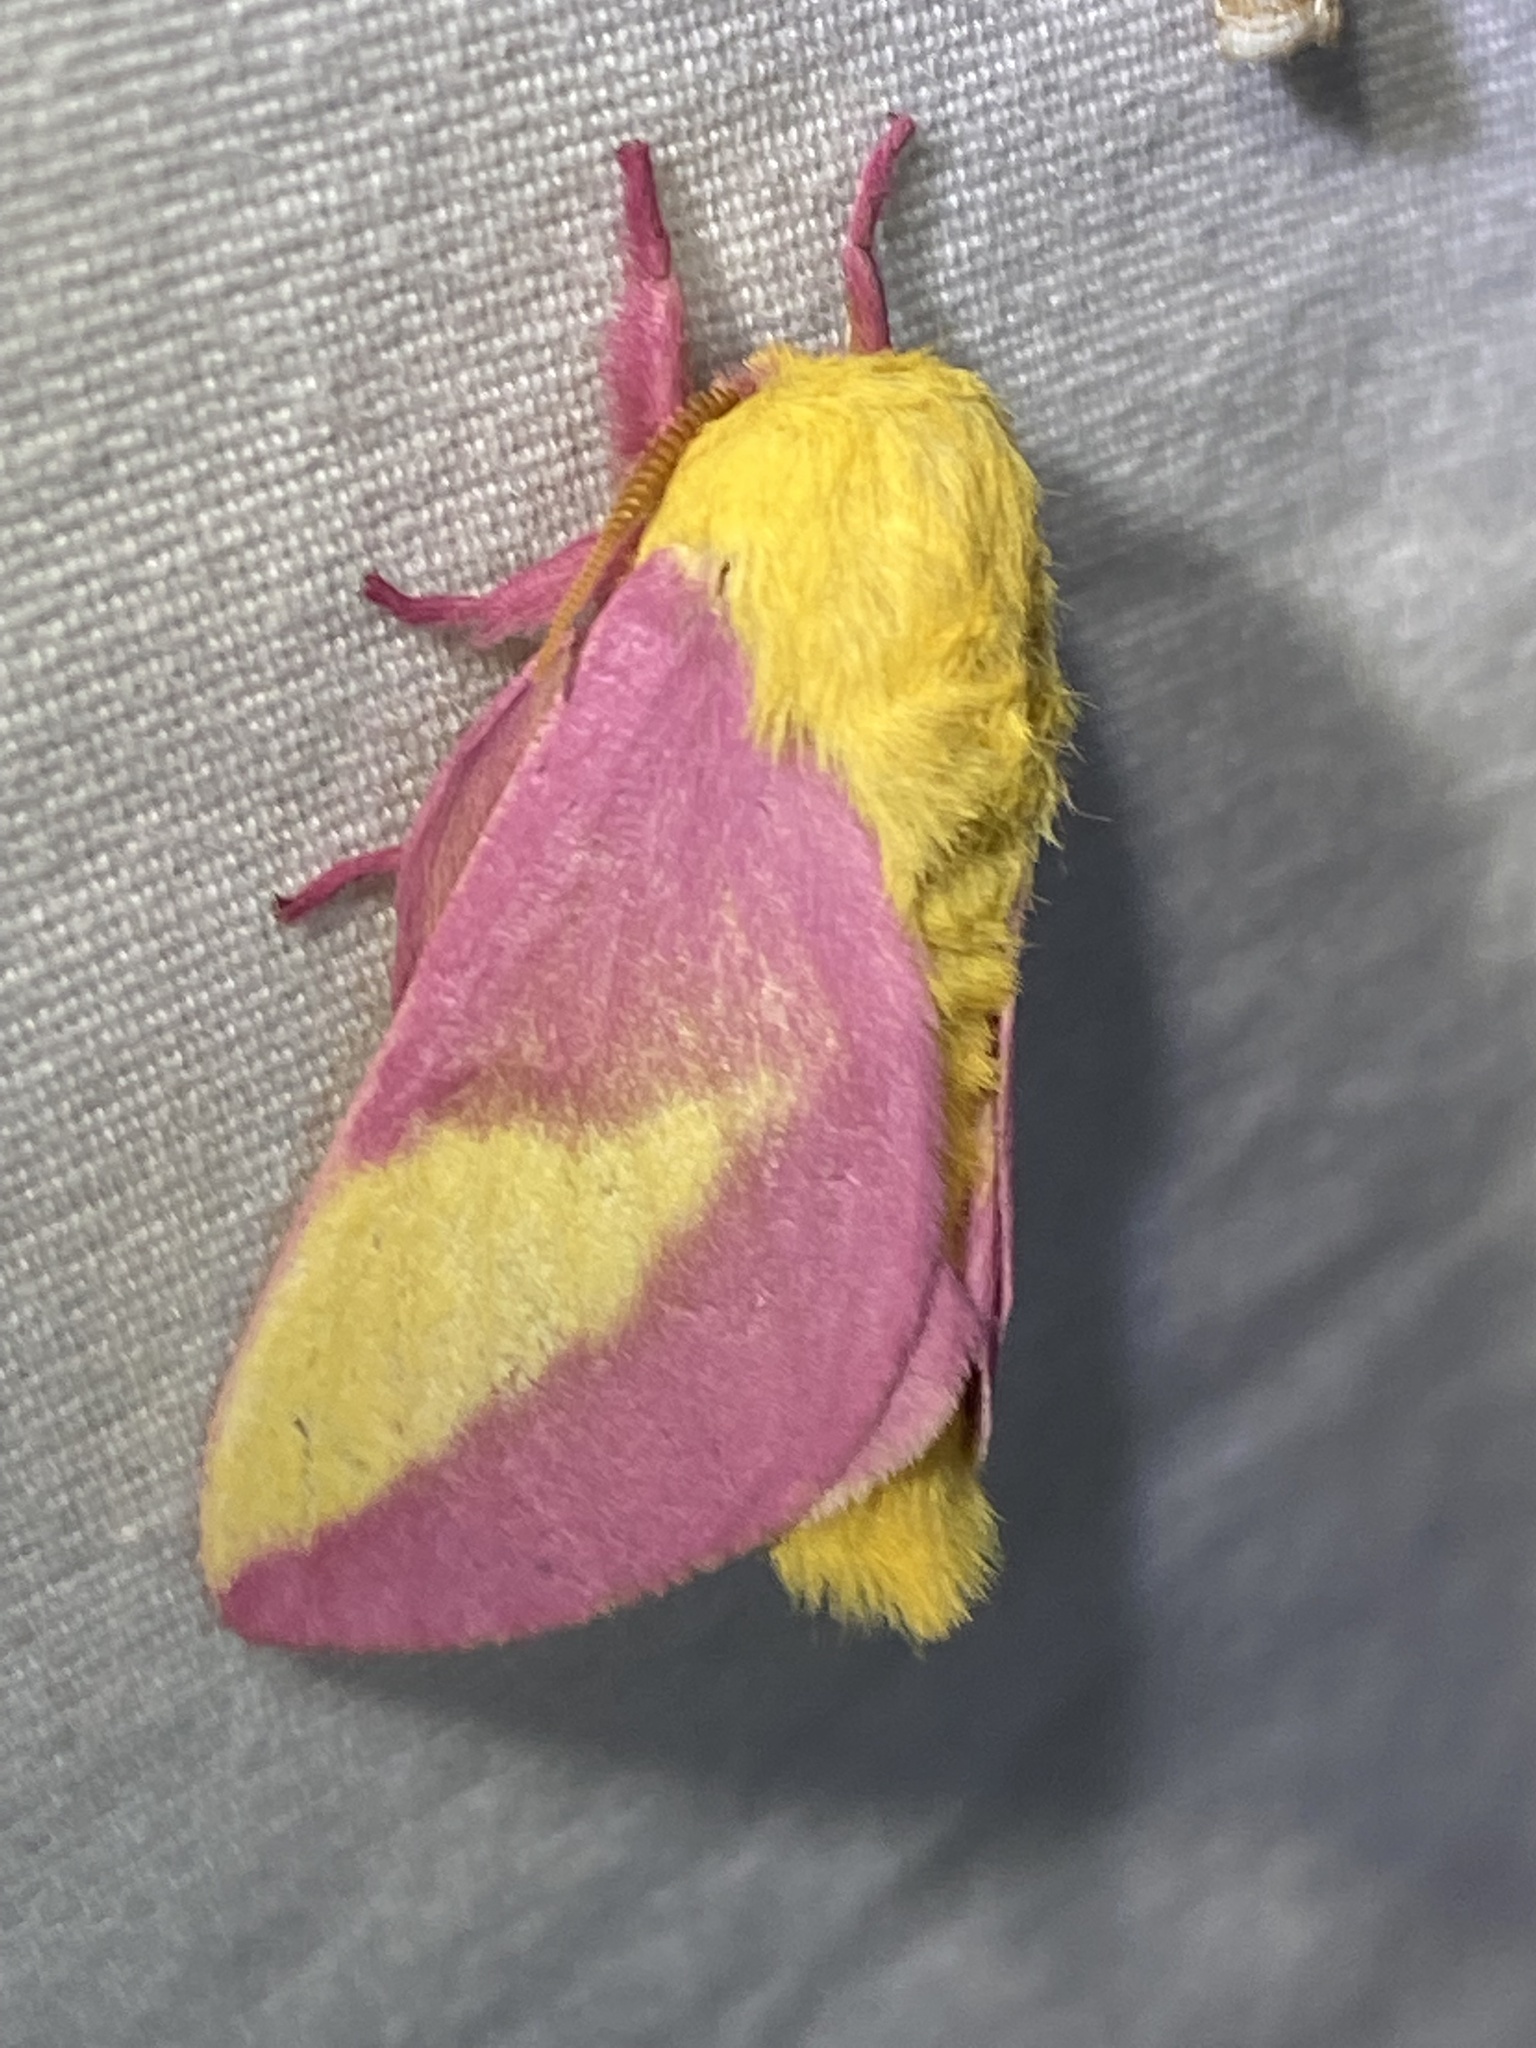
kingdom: Animalia
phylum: Arthropoda
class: Insecta
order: Lepidoptera
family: Saturniidae
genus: Dryocampa
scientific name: Dryocampa rubicunda
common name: Rosy maple moth
